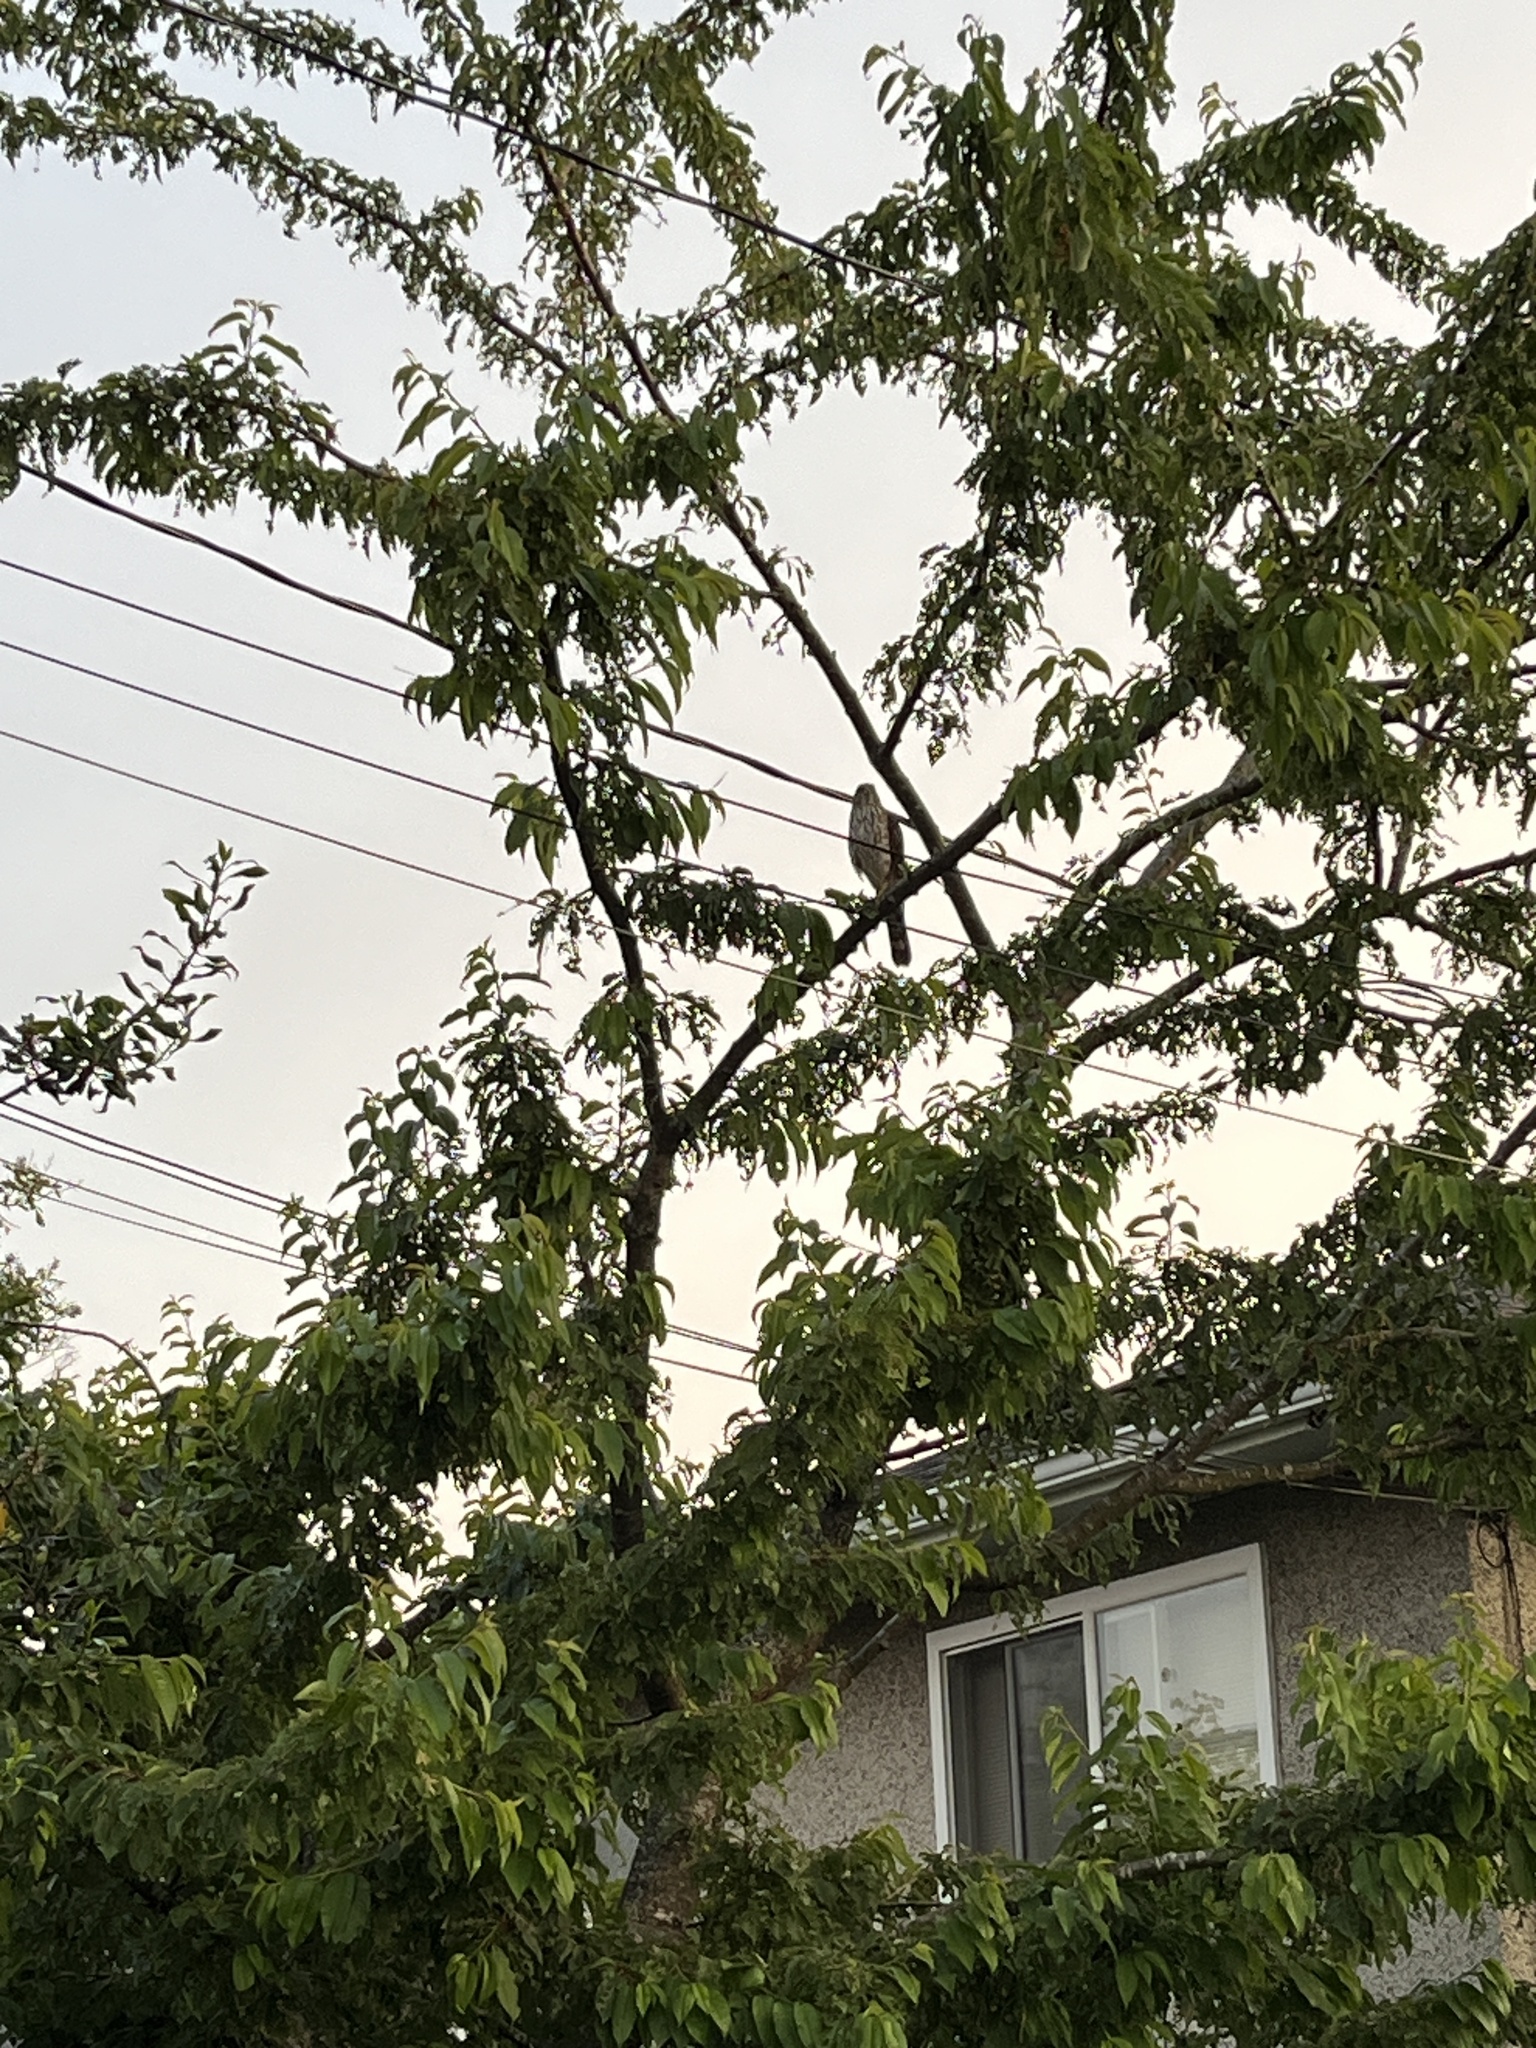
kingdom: Animalia
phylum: Chordata
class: Aves
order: Accipitriformes
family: Accipitridae
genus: Accipiter
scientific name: Accipiter cooperii
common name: Cooper's hawk
